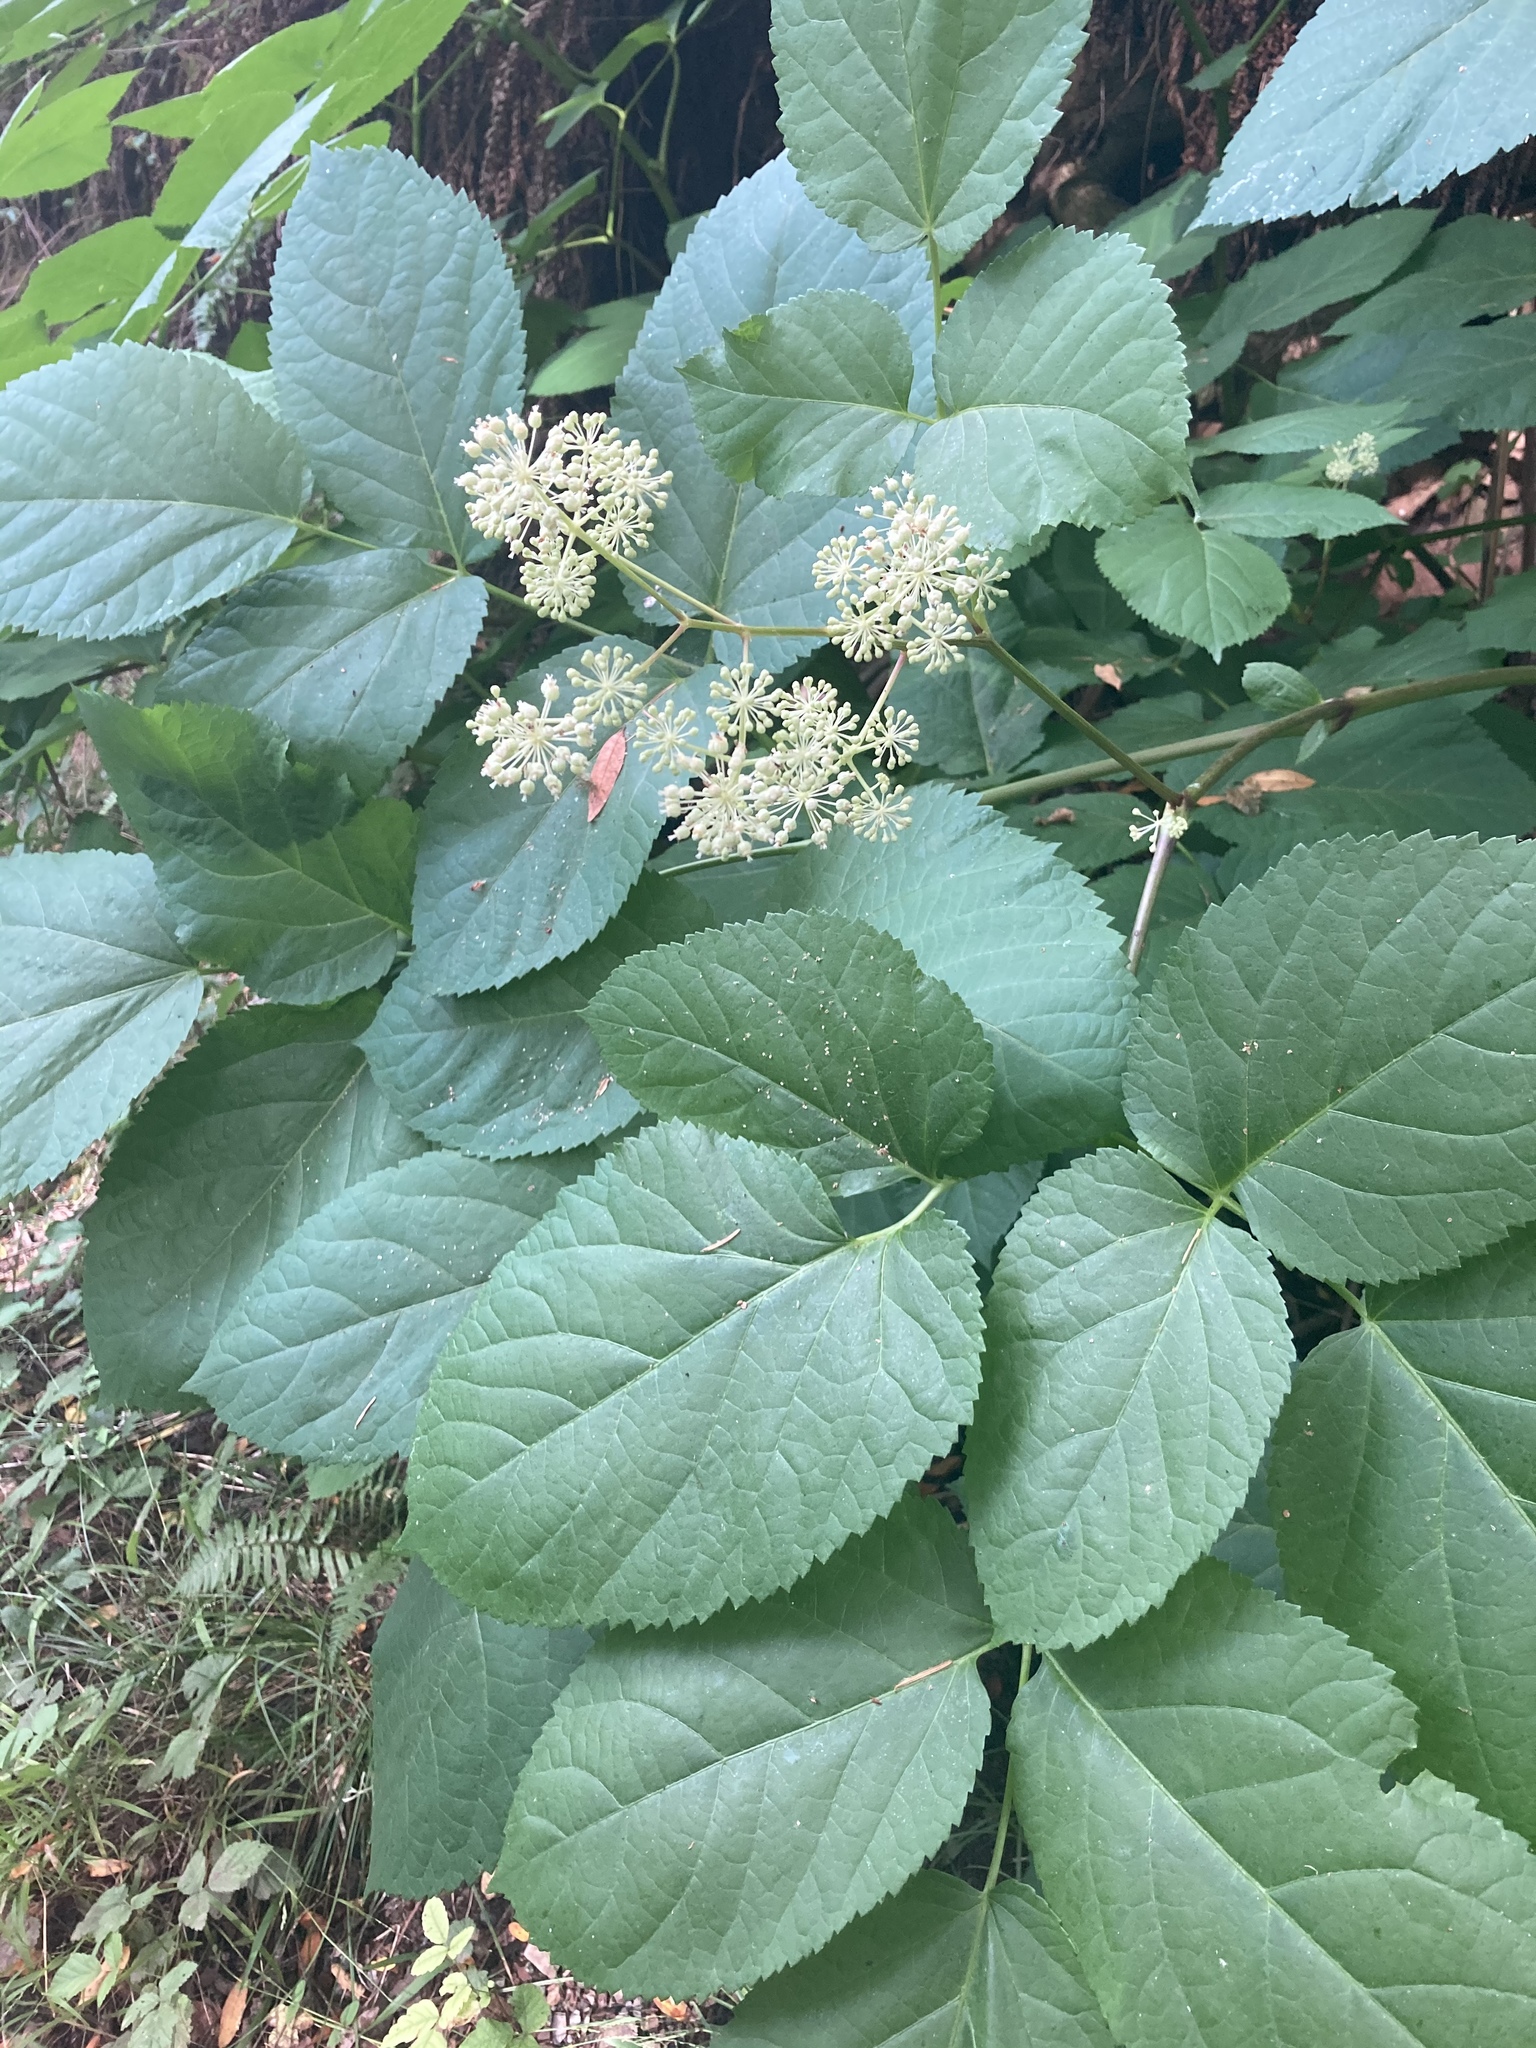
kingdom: Plantae
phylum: Tracheophyta
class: Magnoliopsida
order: Apiales
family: Araliaceae
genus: Aralia
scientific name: Aralia californica
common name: California-ginseng
